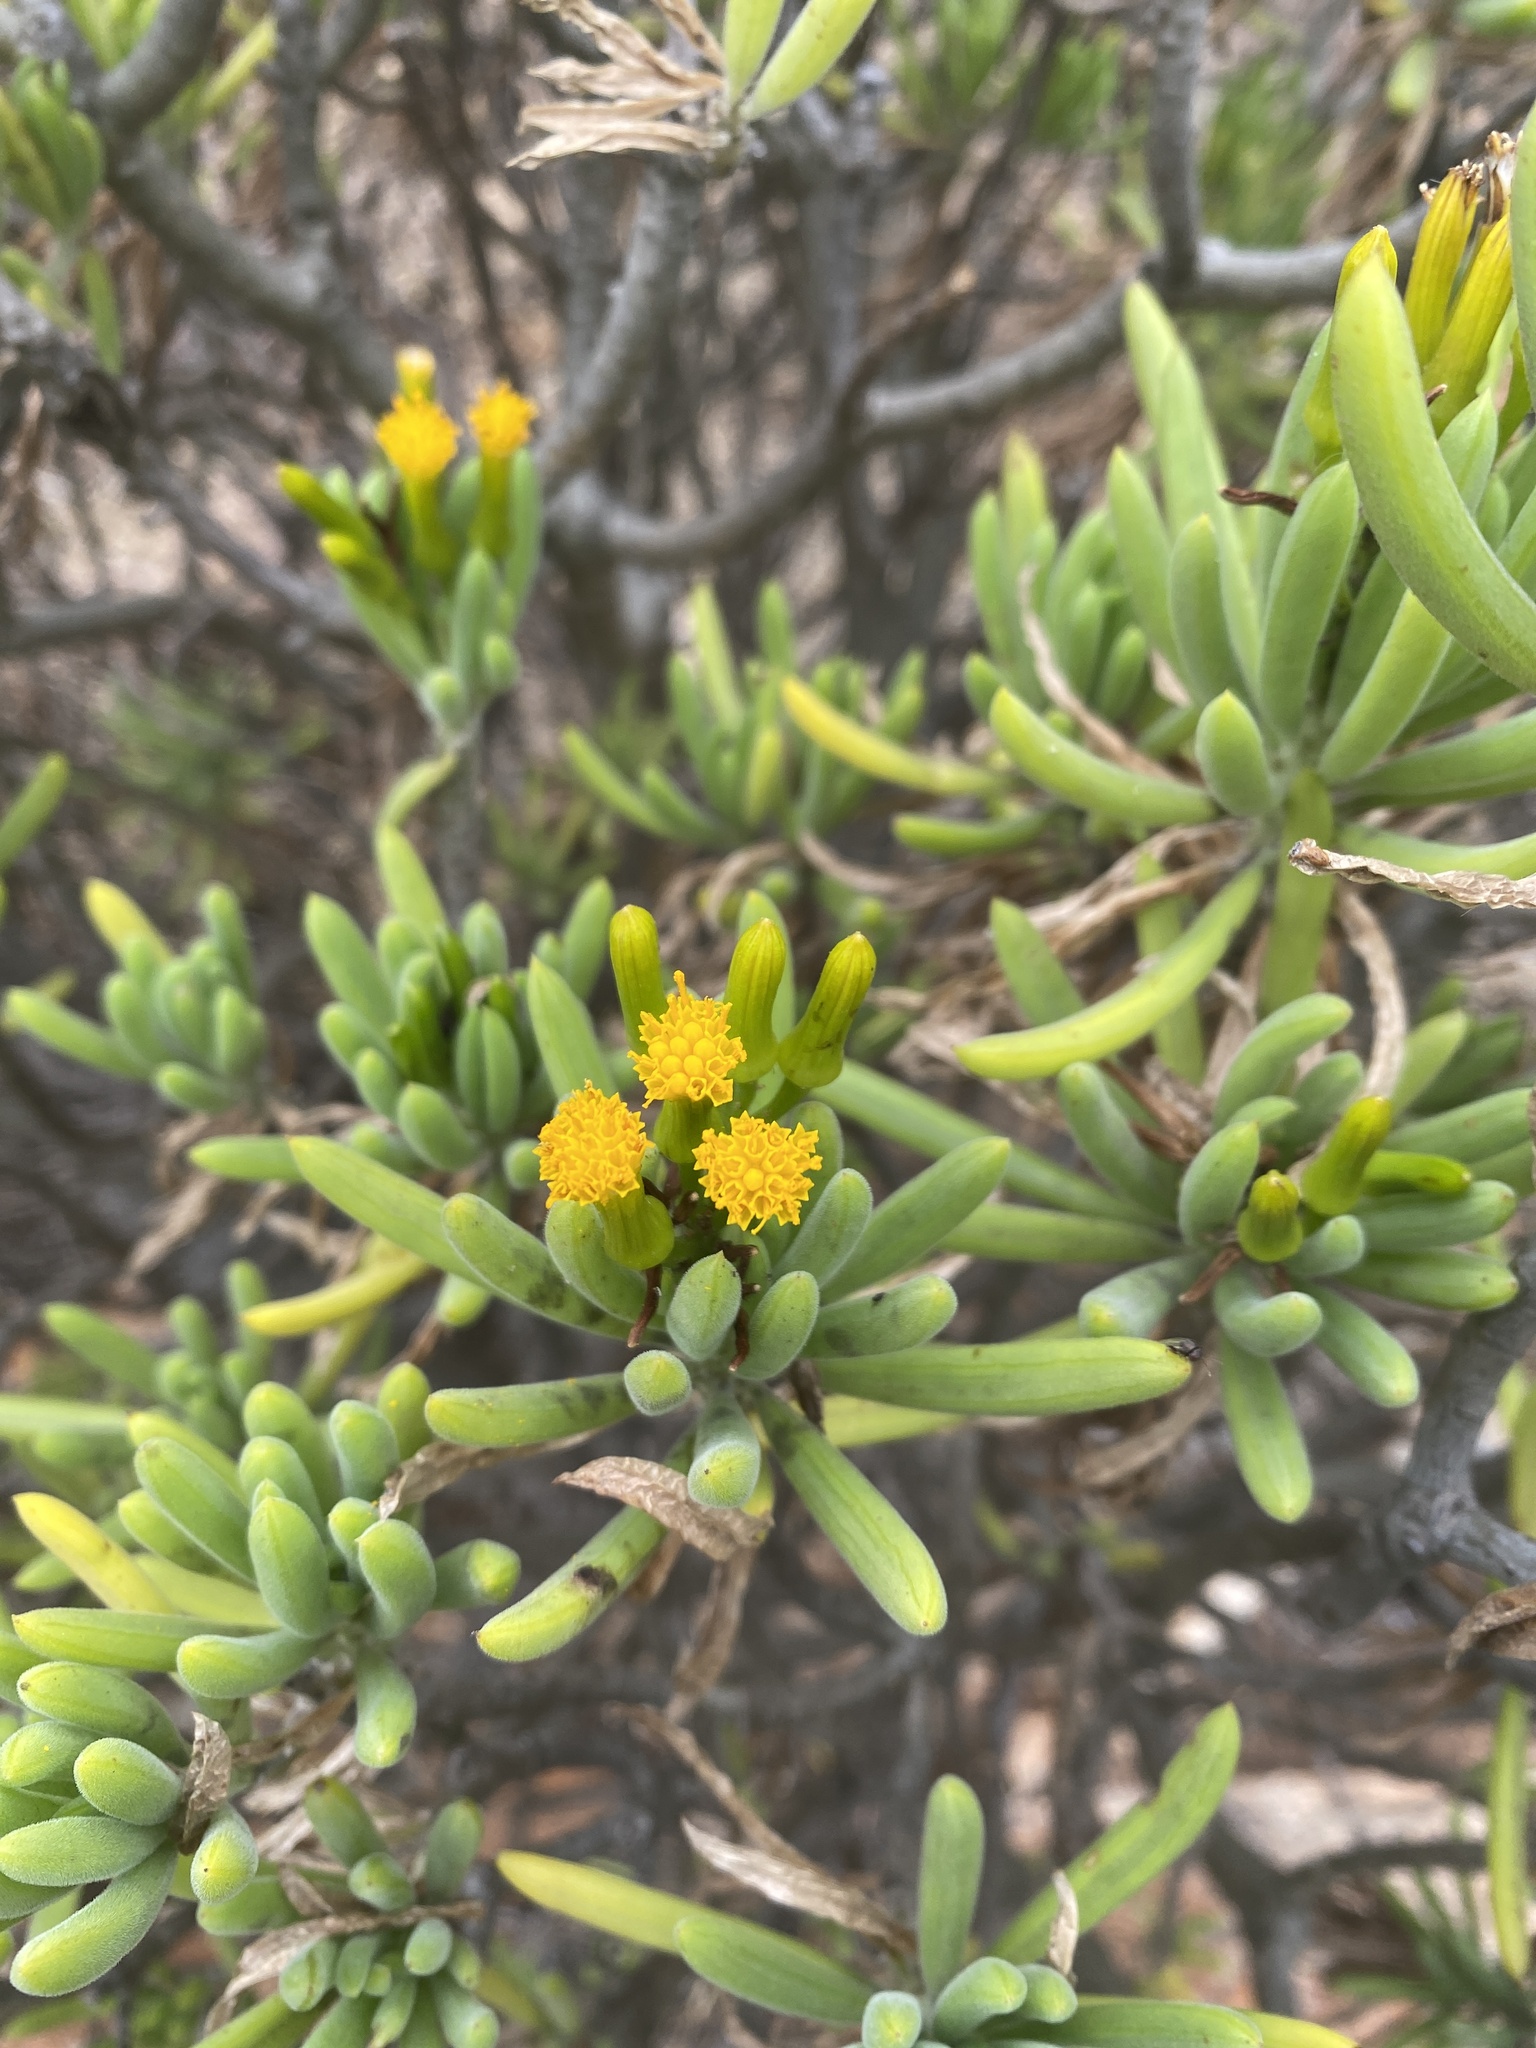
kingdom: Plantae
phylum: Tracheophyta
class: Magnoliopsida
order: Asterales
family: Asteraceae
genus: Kleinia
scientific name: Kleinia barbertonica
